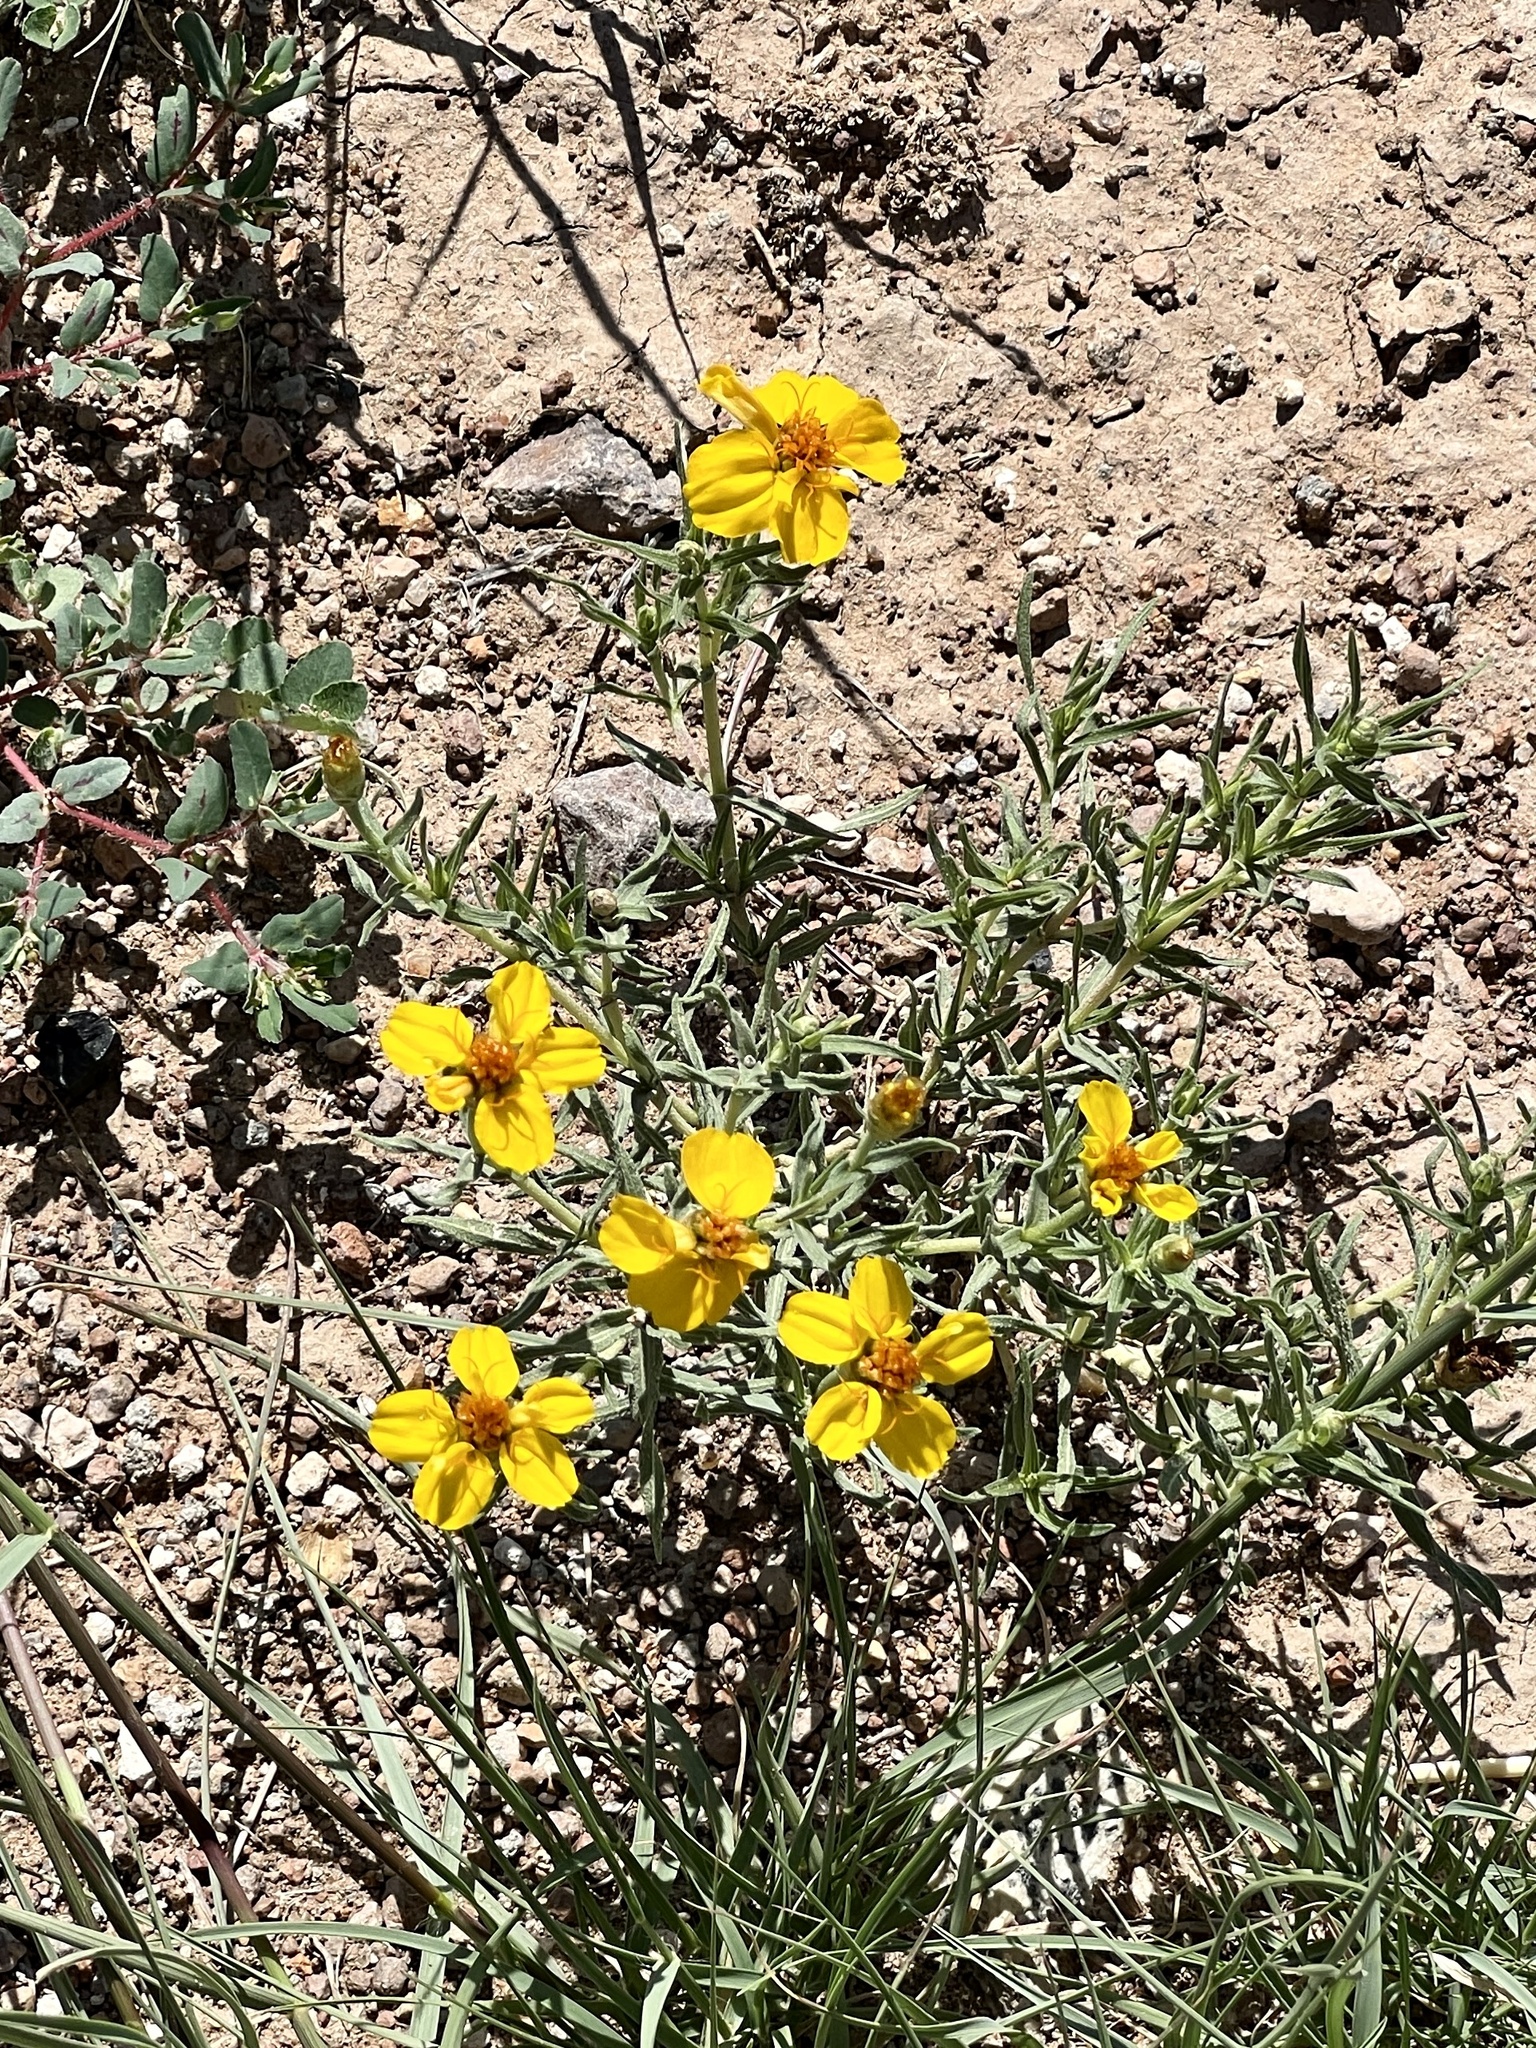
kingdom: Plantae
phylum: Tracheophyta
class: Magnoliopsida
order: Asterales
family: Asteraceae
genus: Zinnia
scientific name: Zinnia grandiflora
